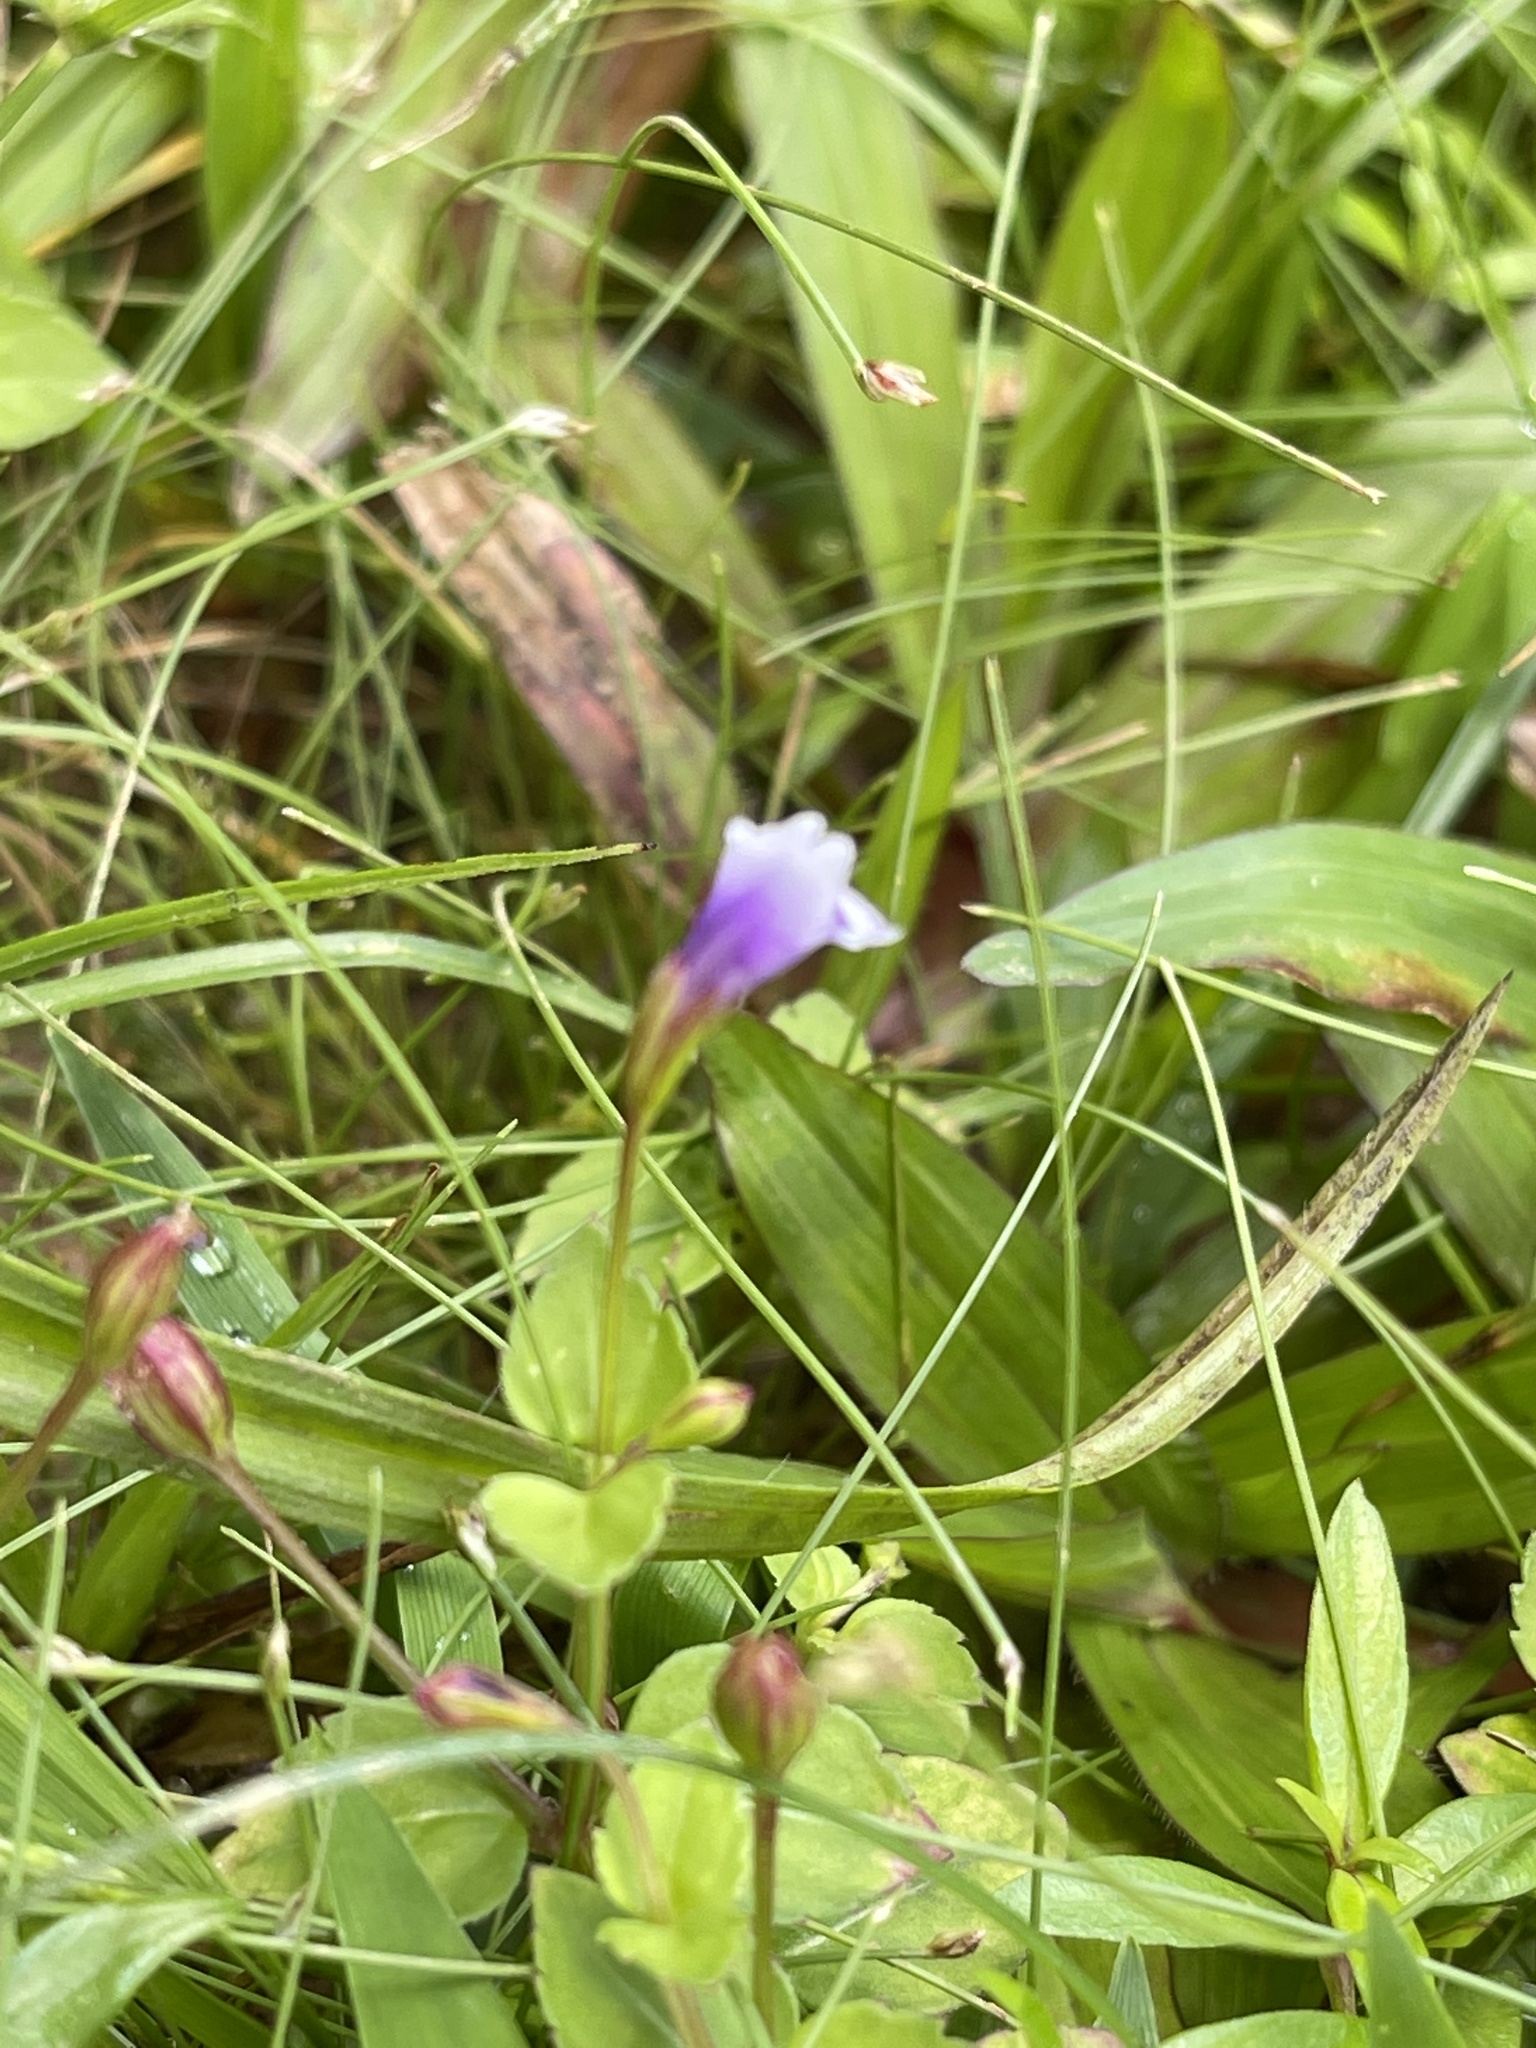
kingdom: Plantae
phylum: Tracheophyta
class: Magnoliopsida
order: Lamiales
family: Linderniaceae
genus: Torenia
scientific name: Torenia crustacea
